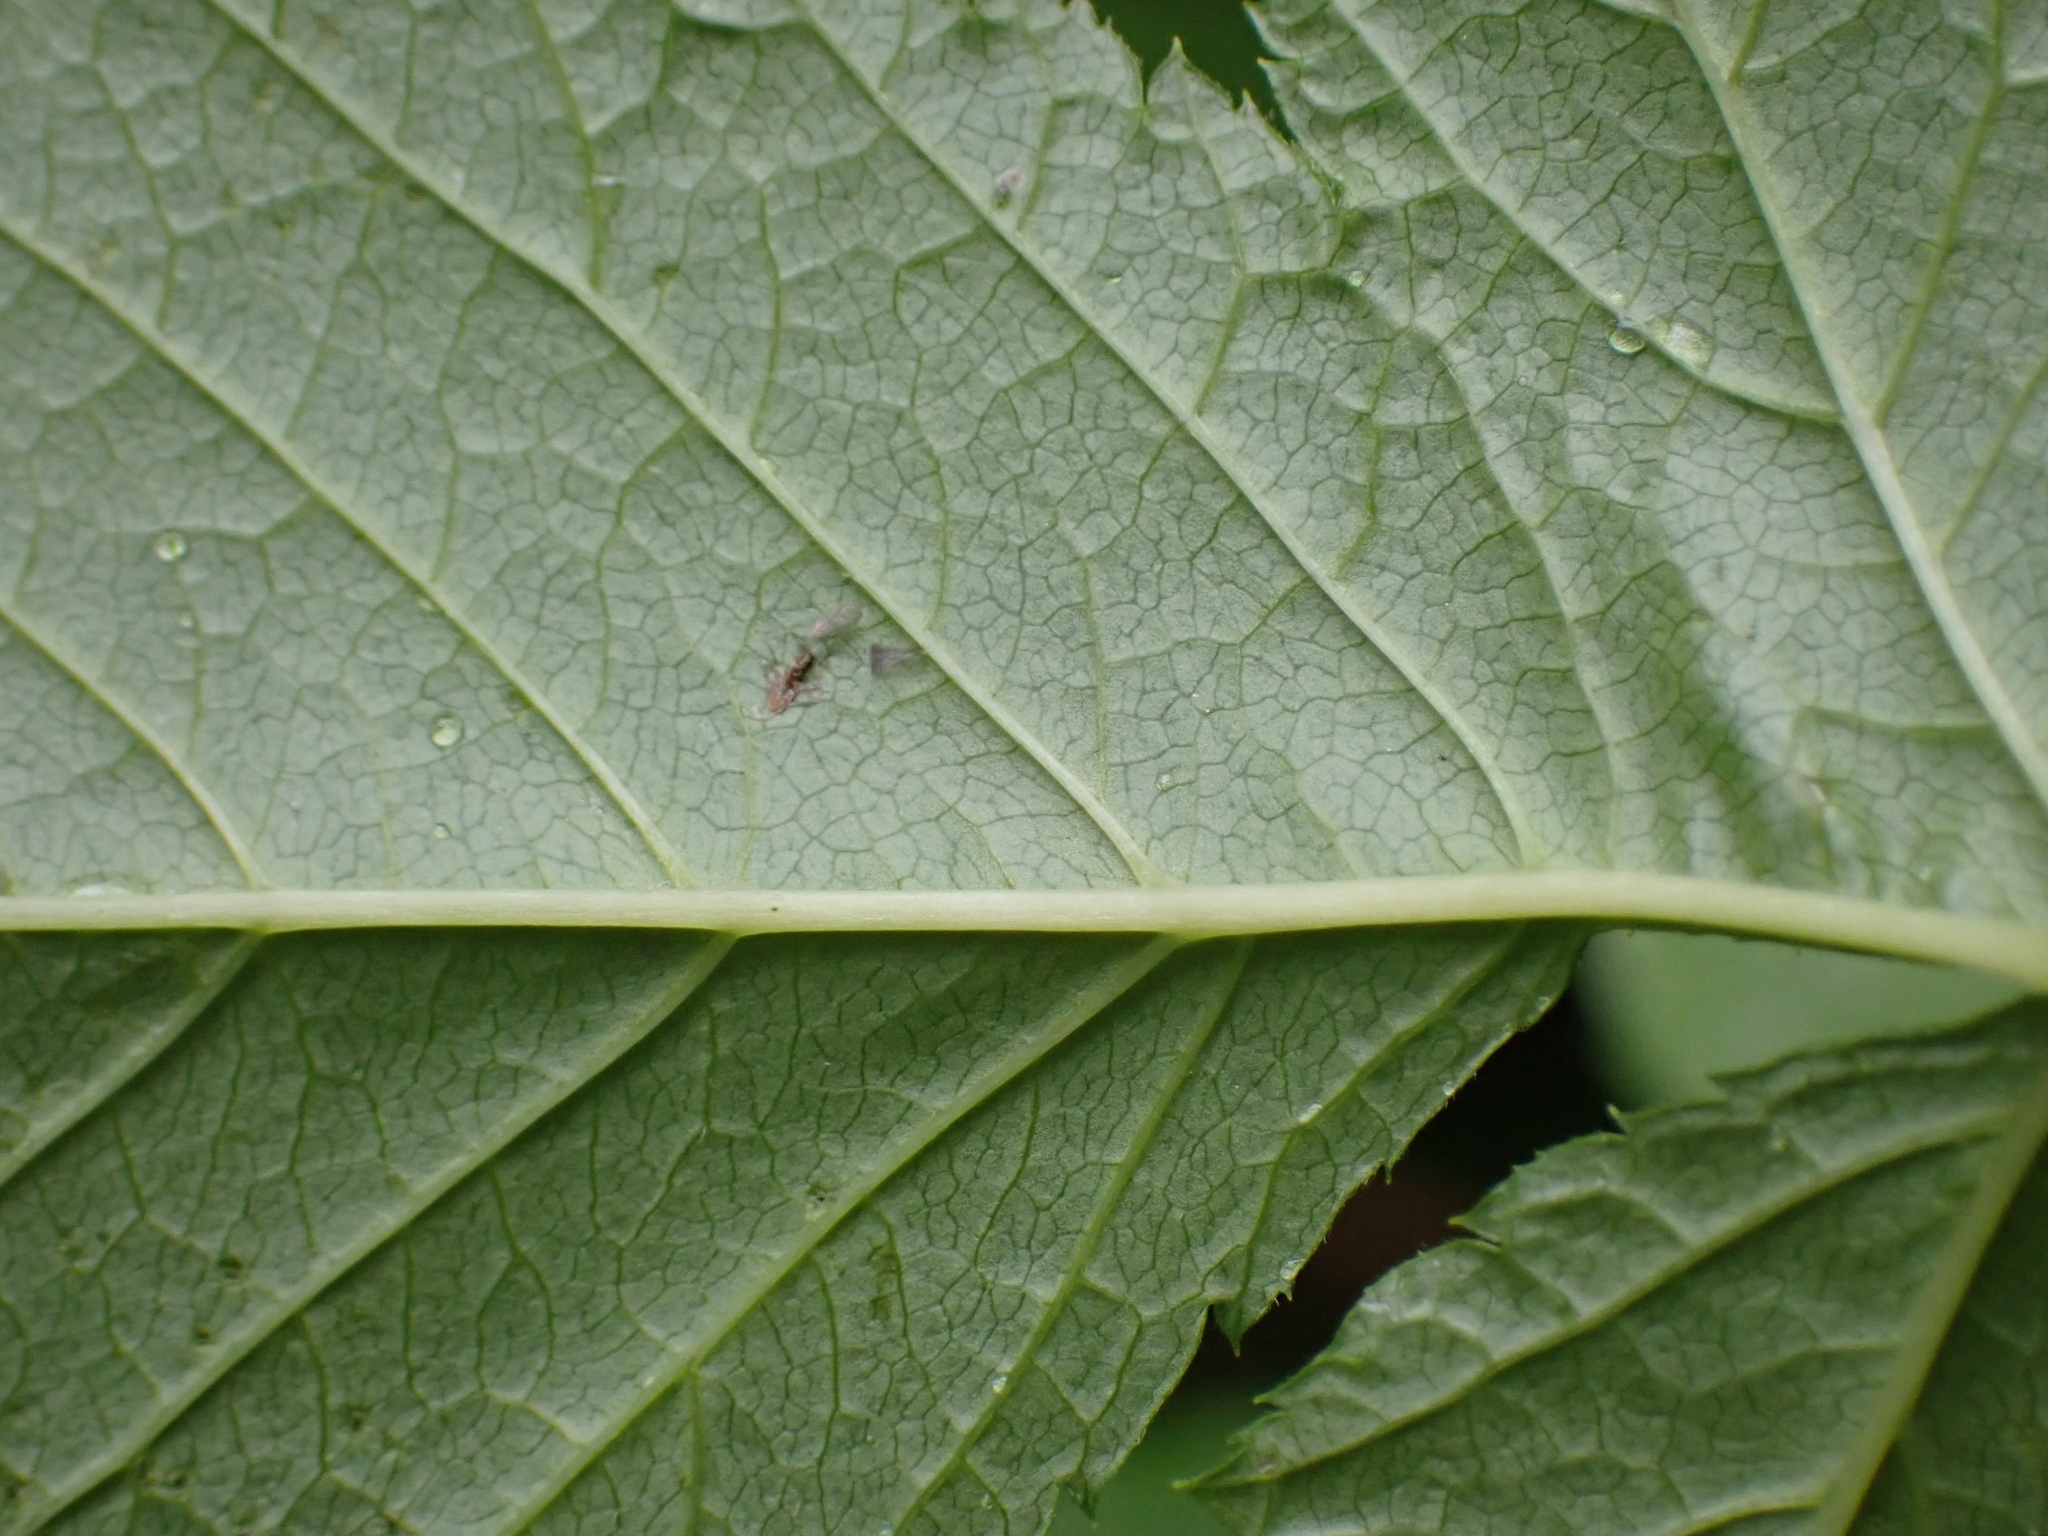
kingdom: Plantae
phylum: Tracheophyta
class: Magnoliopsida
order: Rosales
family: Rosaceae
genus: Aruncus
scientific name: Aruncus dioicus
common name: Buck's-beard
